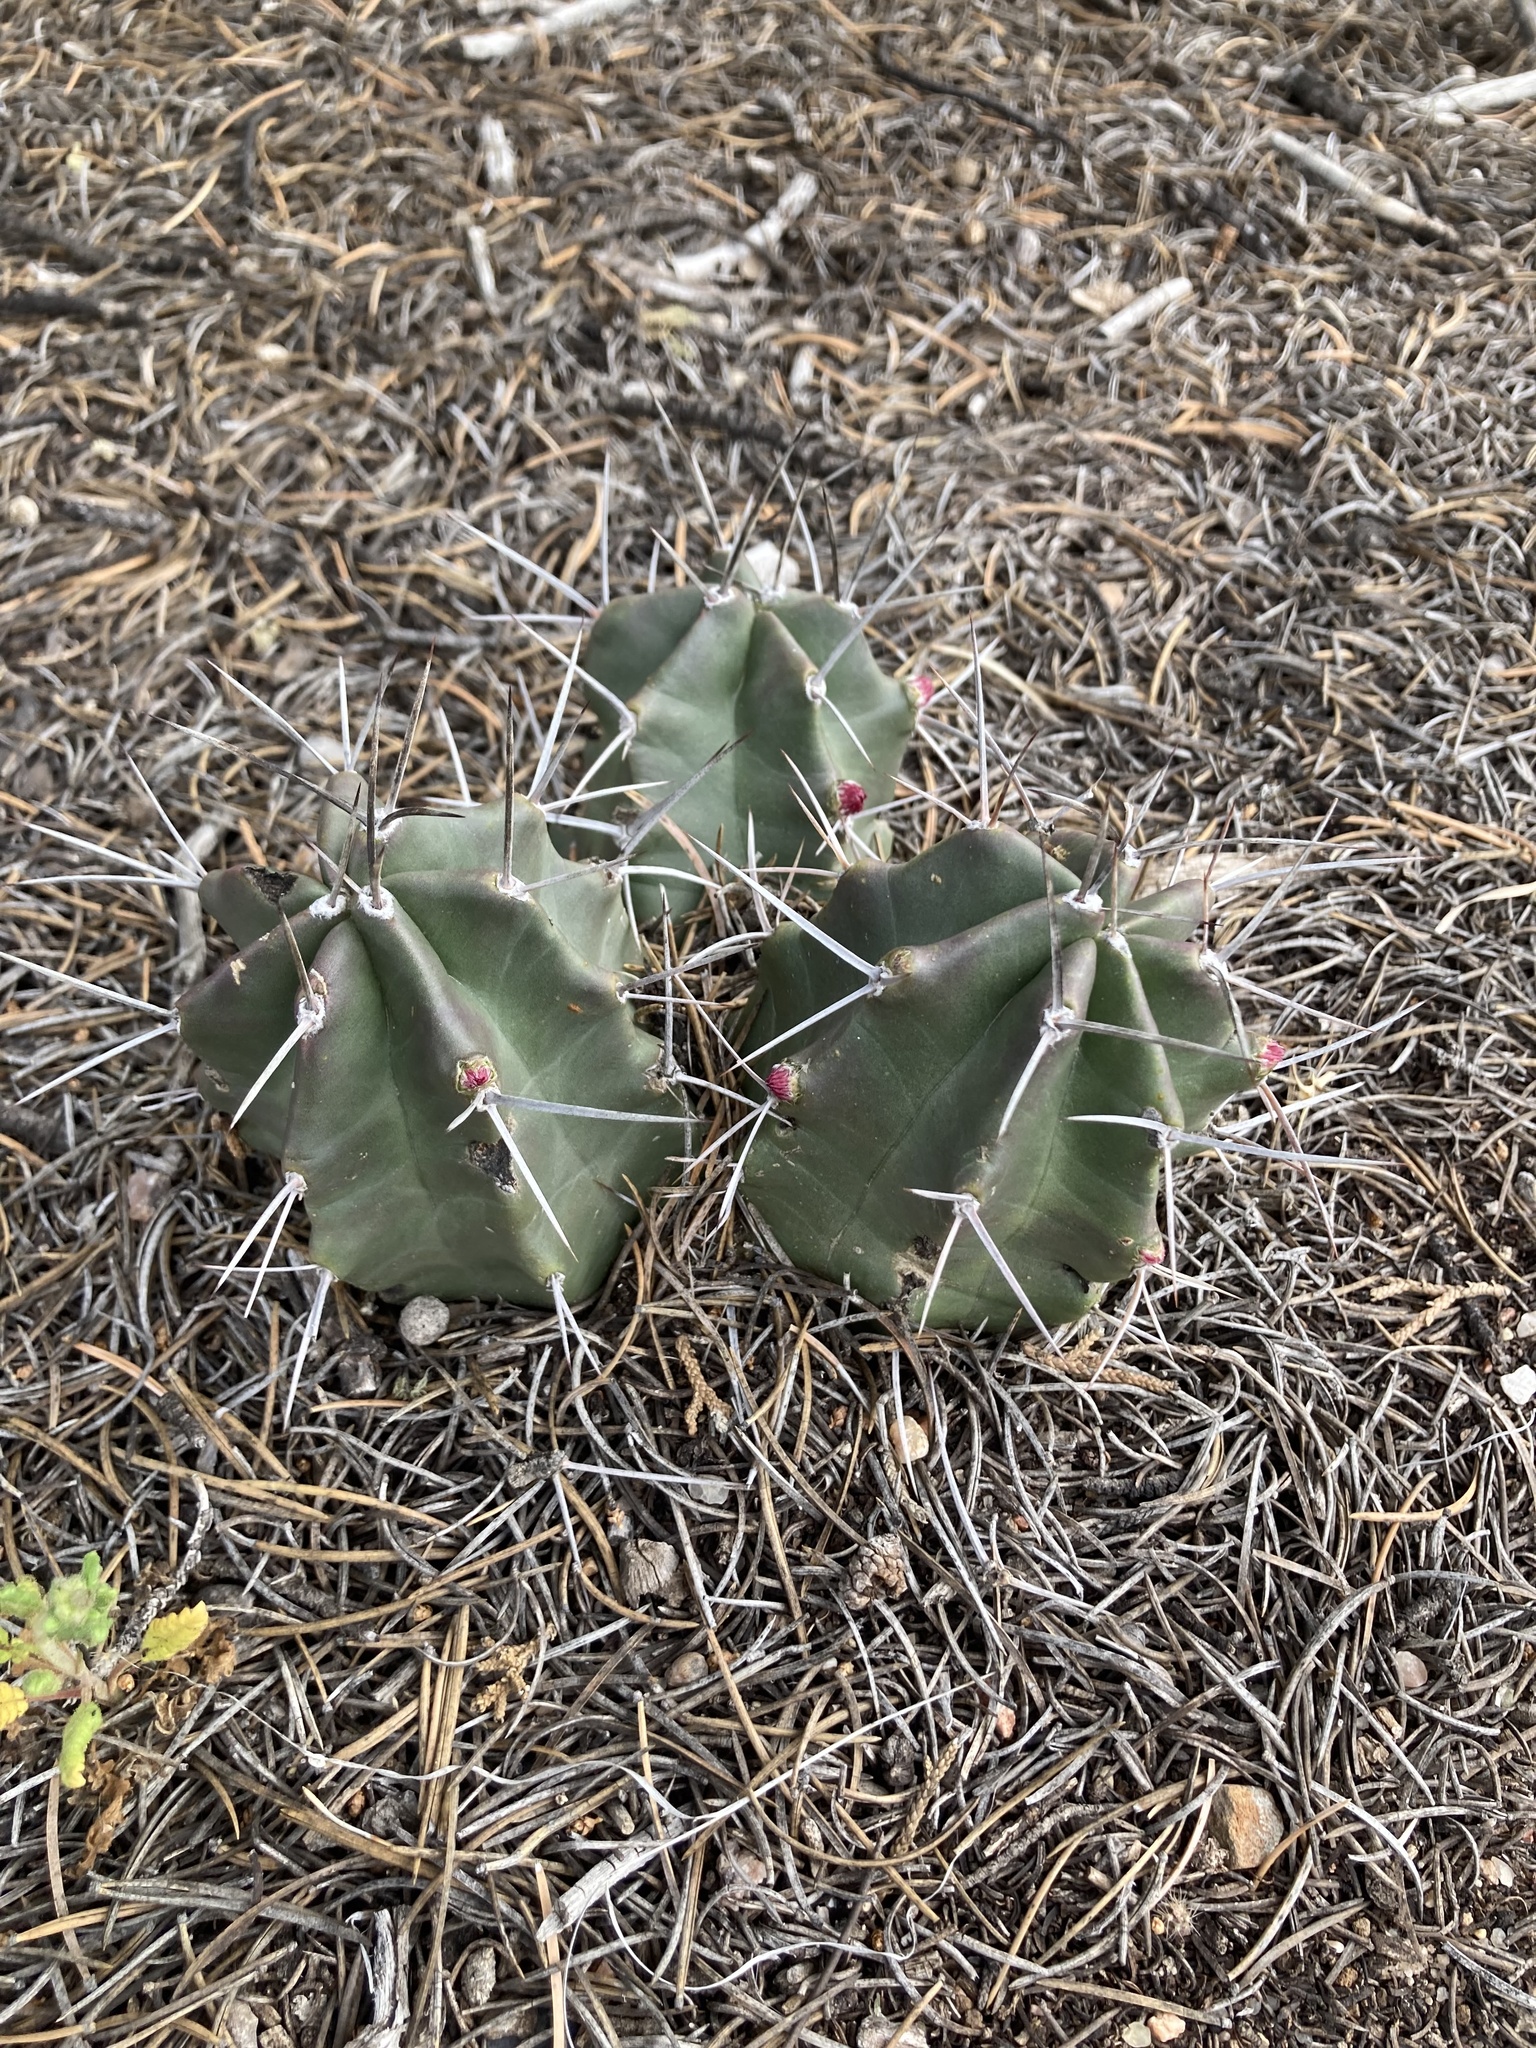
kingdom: Plantae
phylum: Tracheophyta
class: Magnoliopsida
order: Caryophyllales
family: Cactaceae
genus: Echinocereus
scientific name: Echinocereus triglochidiatus
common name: Claretcup hedgehog
